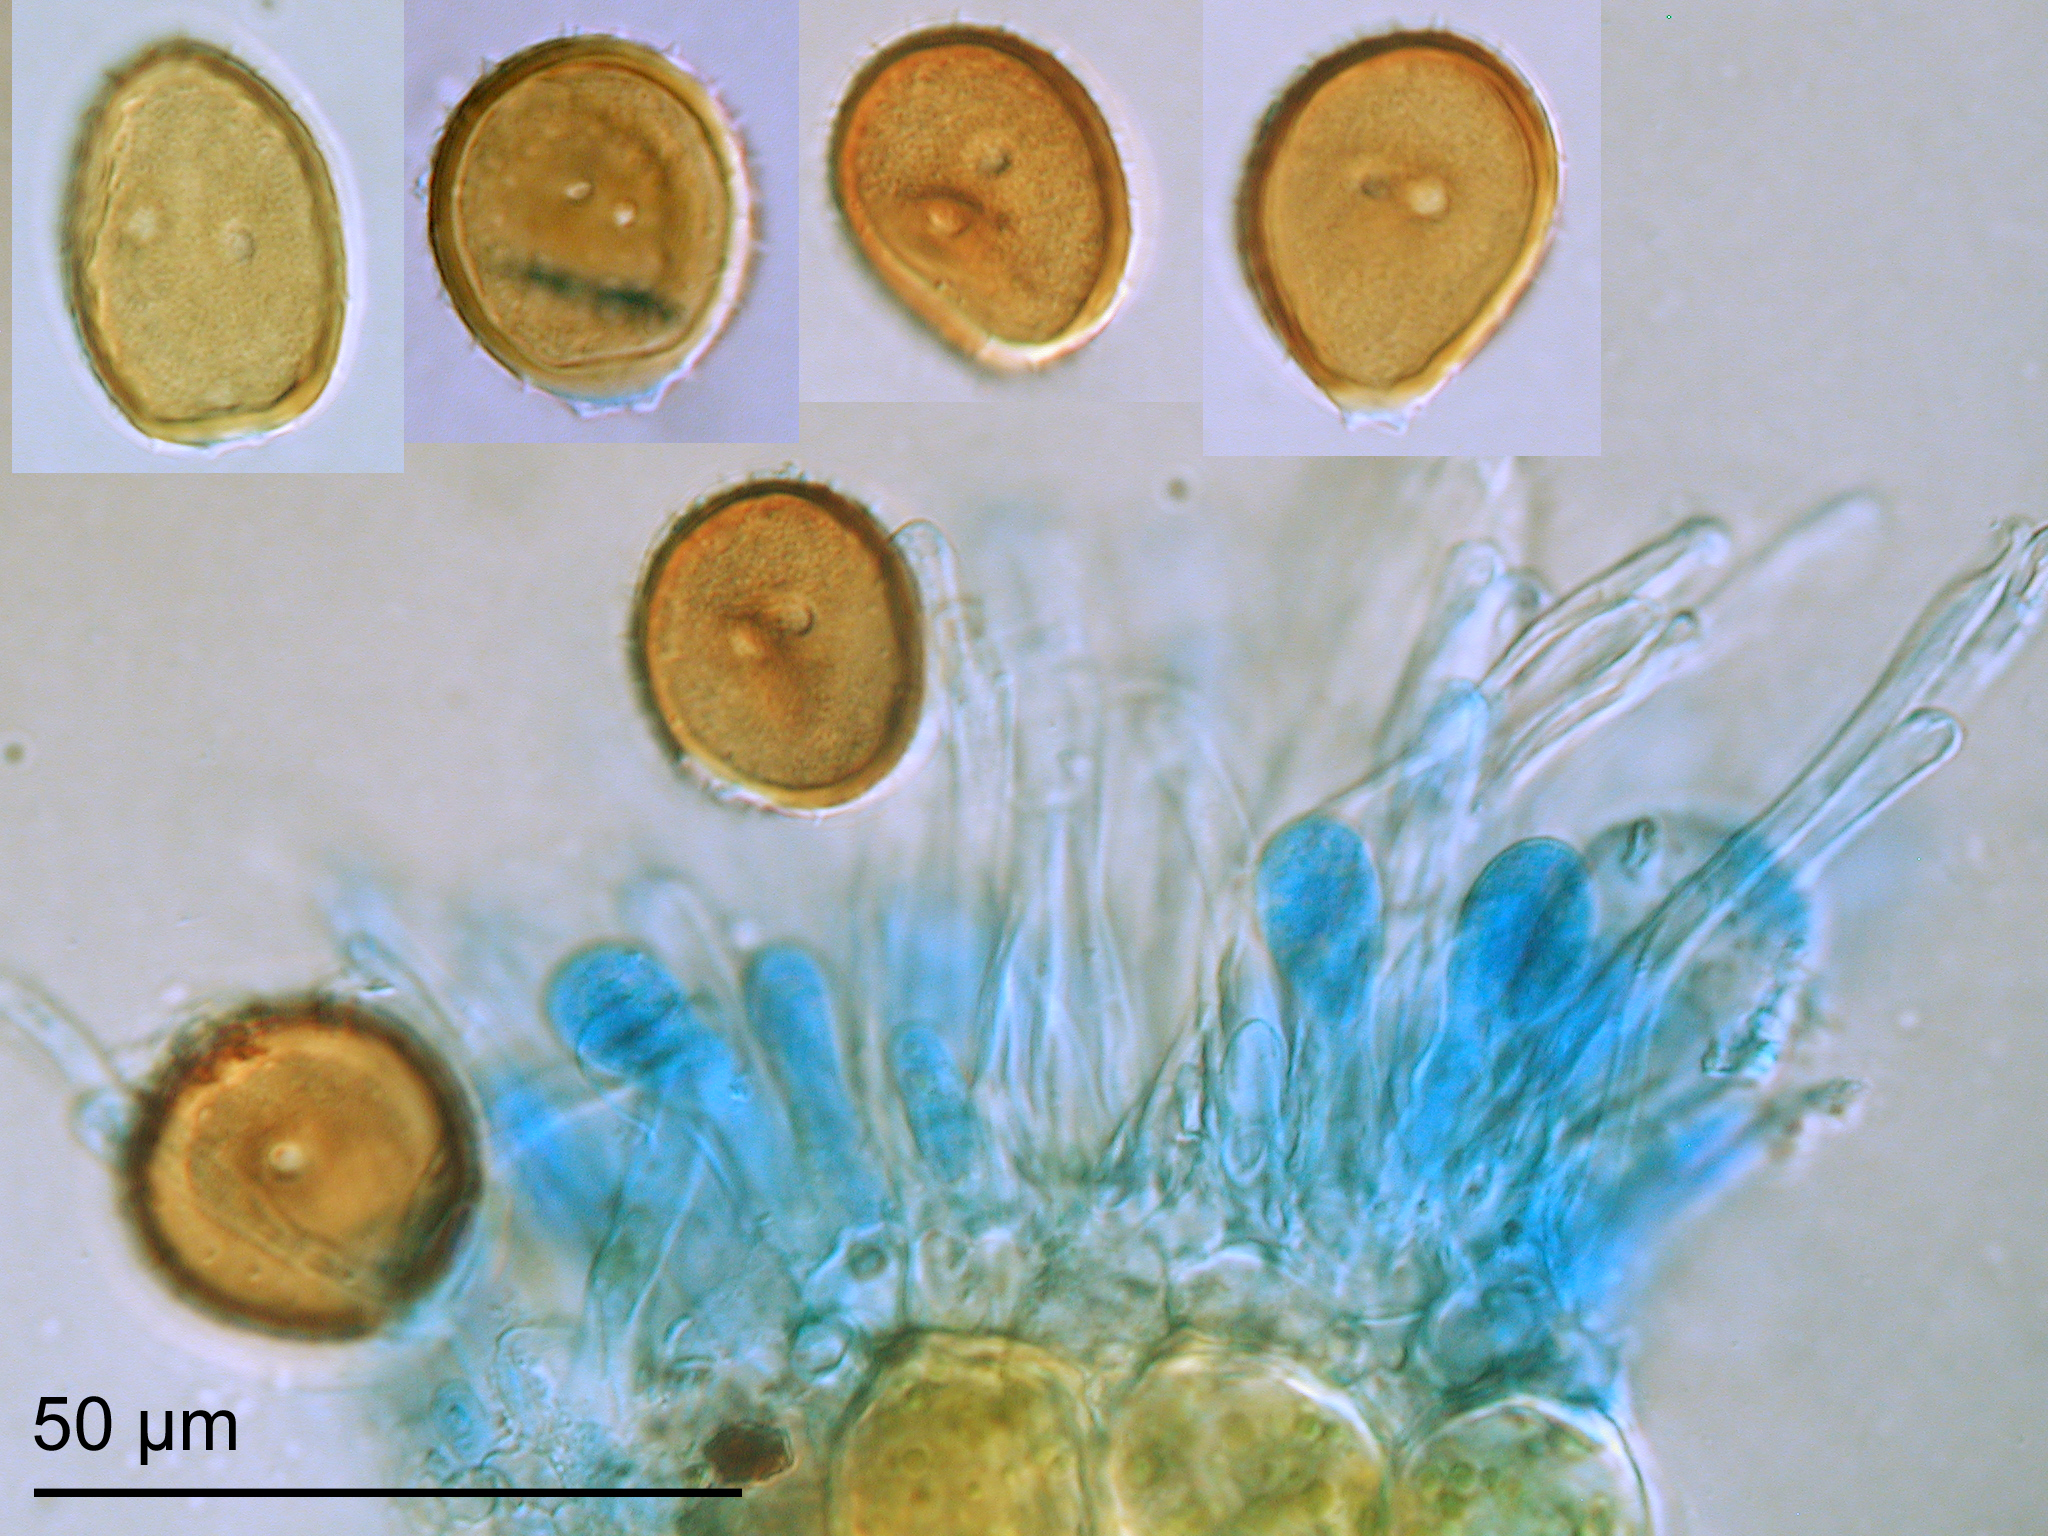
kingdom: Fungi
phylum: Basidiomycota
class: Pucciniomycetes
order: Pucciniales
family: Pucciniaceae
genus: Puccinia
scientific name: Puccinia unciniarum
